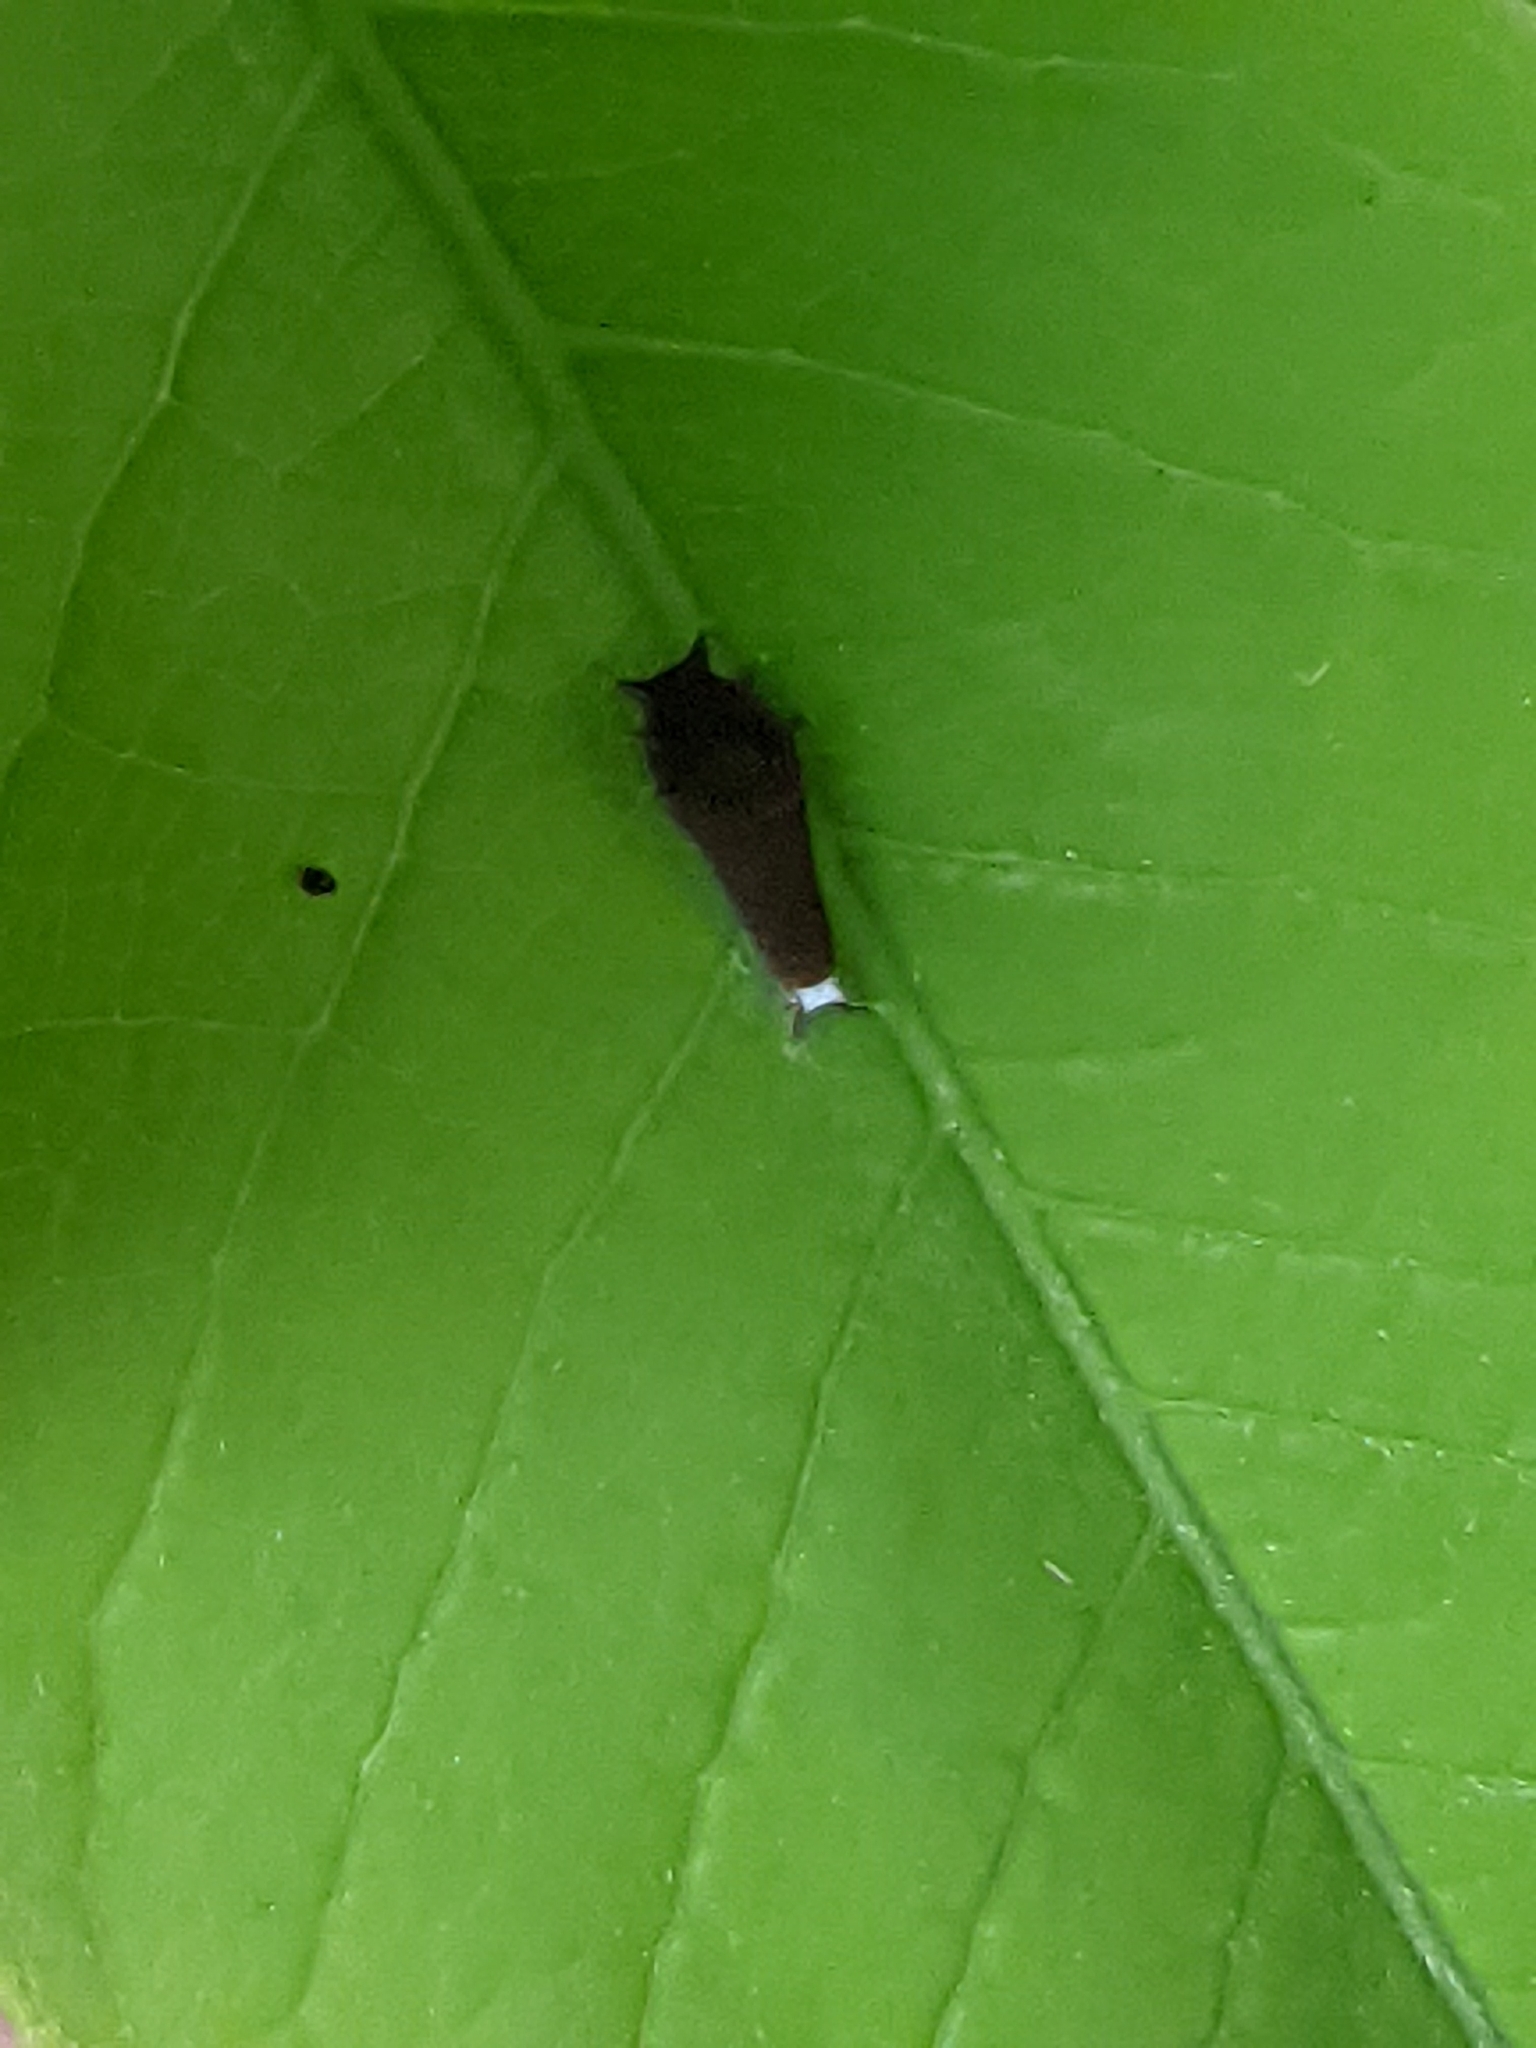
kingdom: Animalia
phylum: Arthropoda
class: Insecta
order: Lepidoptera
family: Papilionidae
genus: Graphium
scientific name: Graphium doson
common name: Common jay
